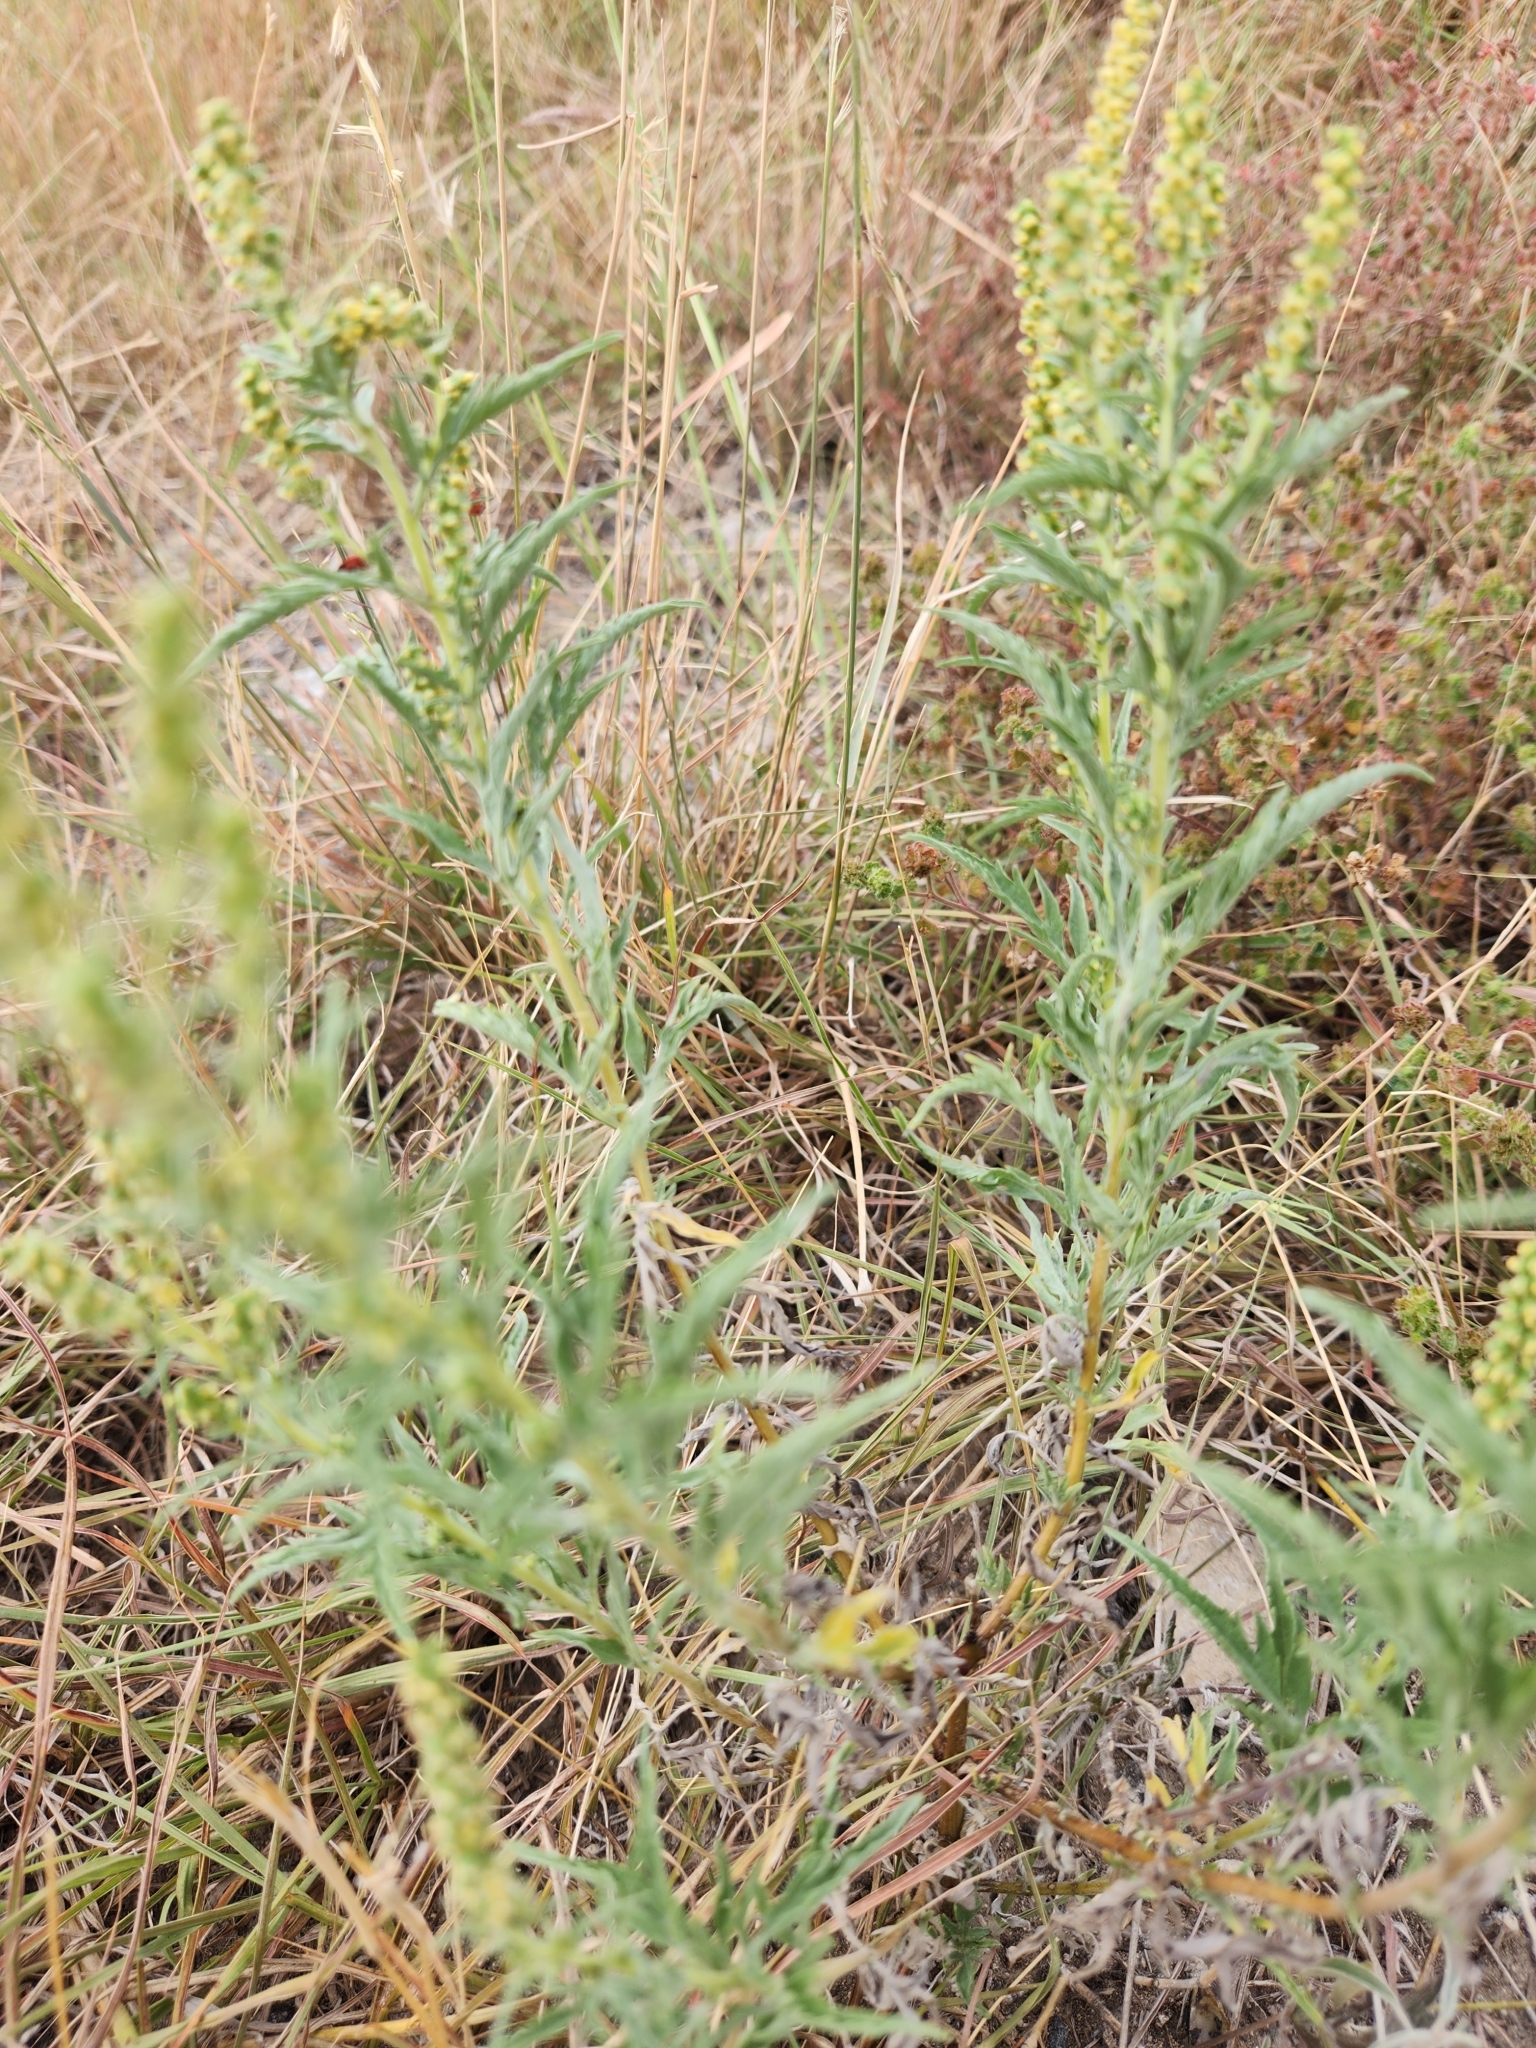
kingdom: Plantae
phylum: Tracheophyta
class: Magnoliopsida
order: Asterales
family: Asteraceae
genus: Ambrosia
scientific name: Ambrosia psilostachya
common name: Perennial ragweed
